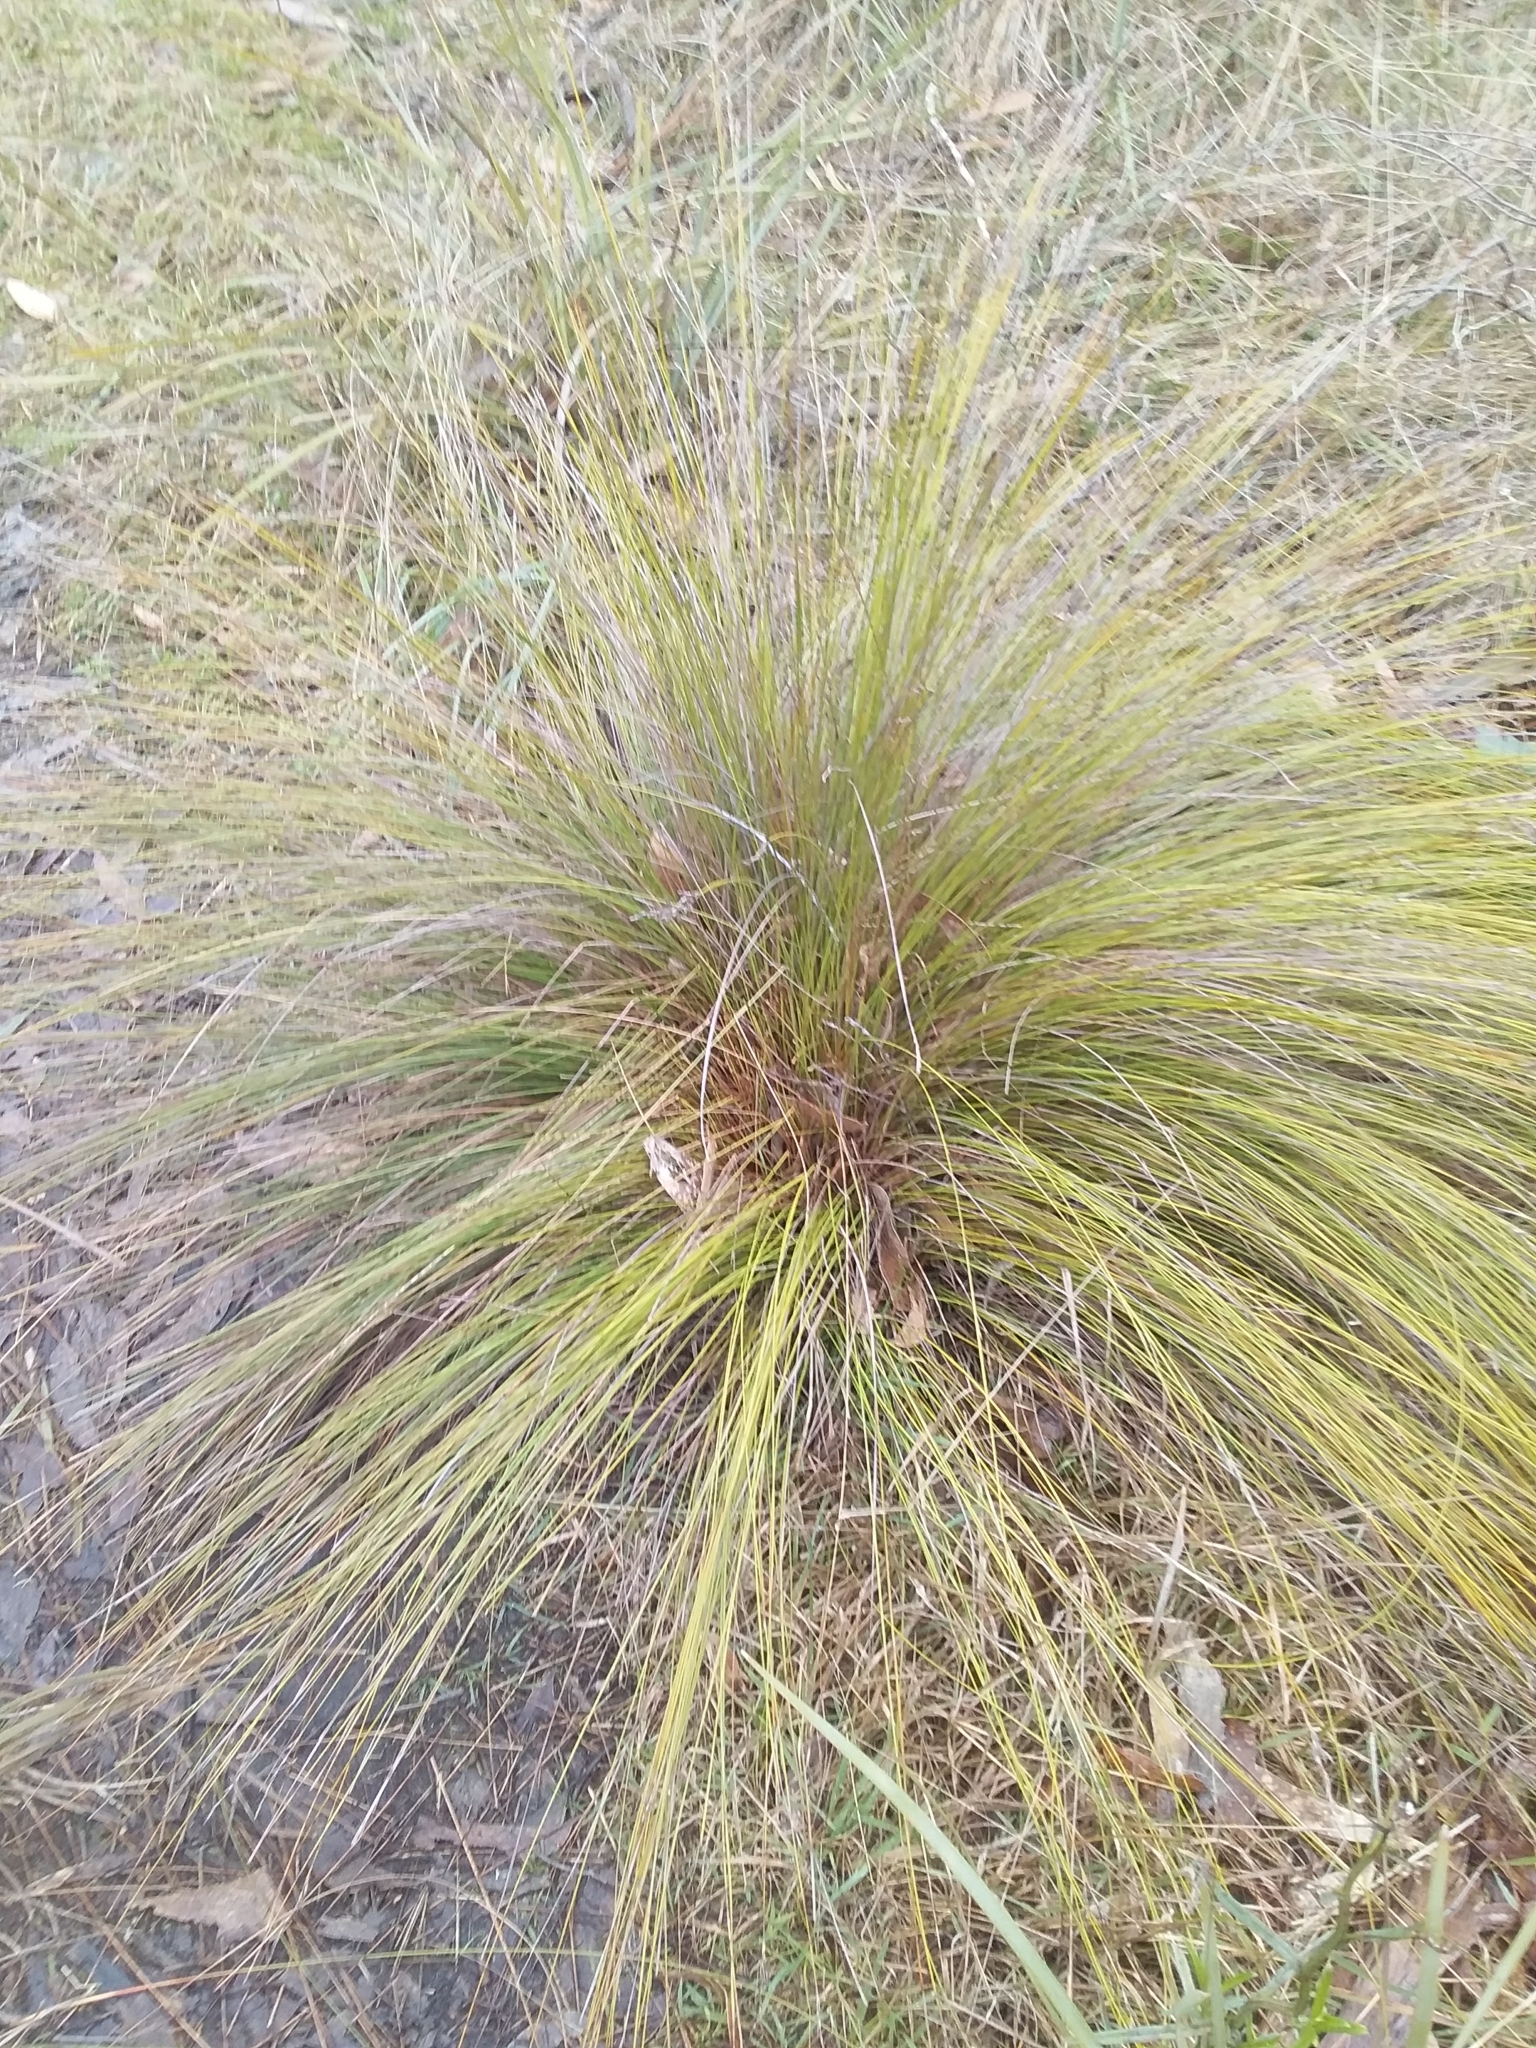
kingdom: Plantae
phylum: Tracheophyta
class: Liliopsida
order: Poales
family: Cyperaceae
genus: Lepidosperma
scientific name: Lepidosperma semiteres
